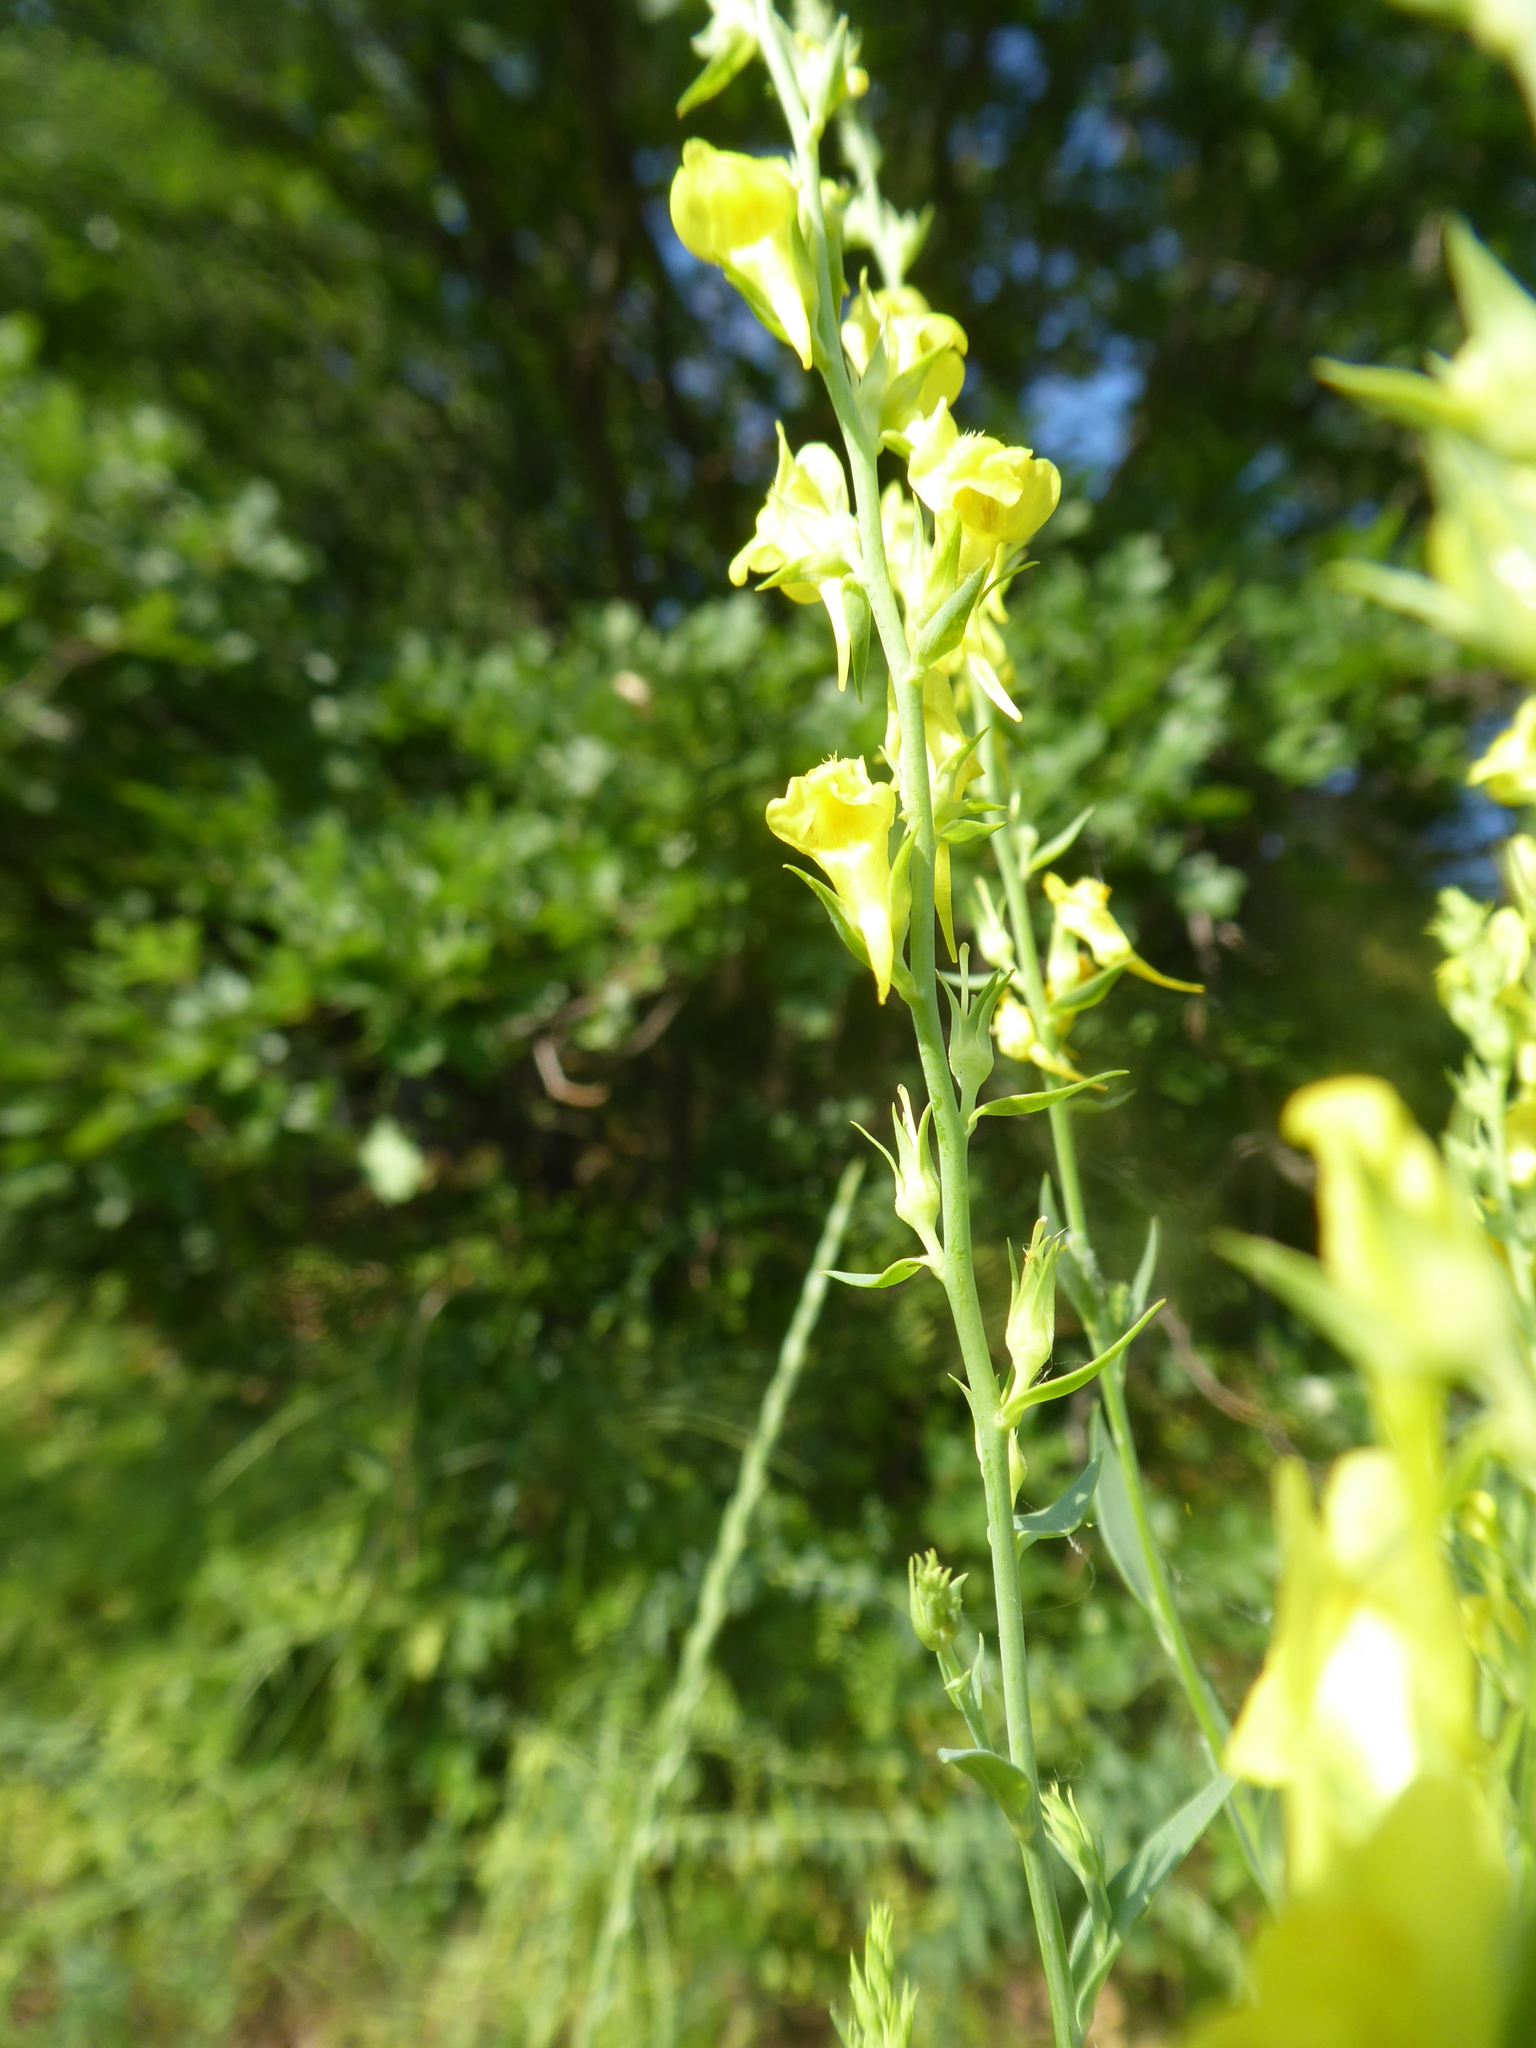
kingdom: Plantae
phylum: Tracheophyta
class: Magnoliopsida
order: Lamiales
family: Plantaginaceae
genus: Linaria
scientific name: Linaria genistifolia
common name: Broomleaf toadflax
